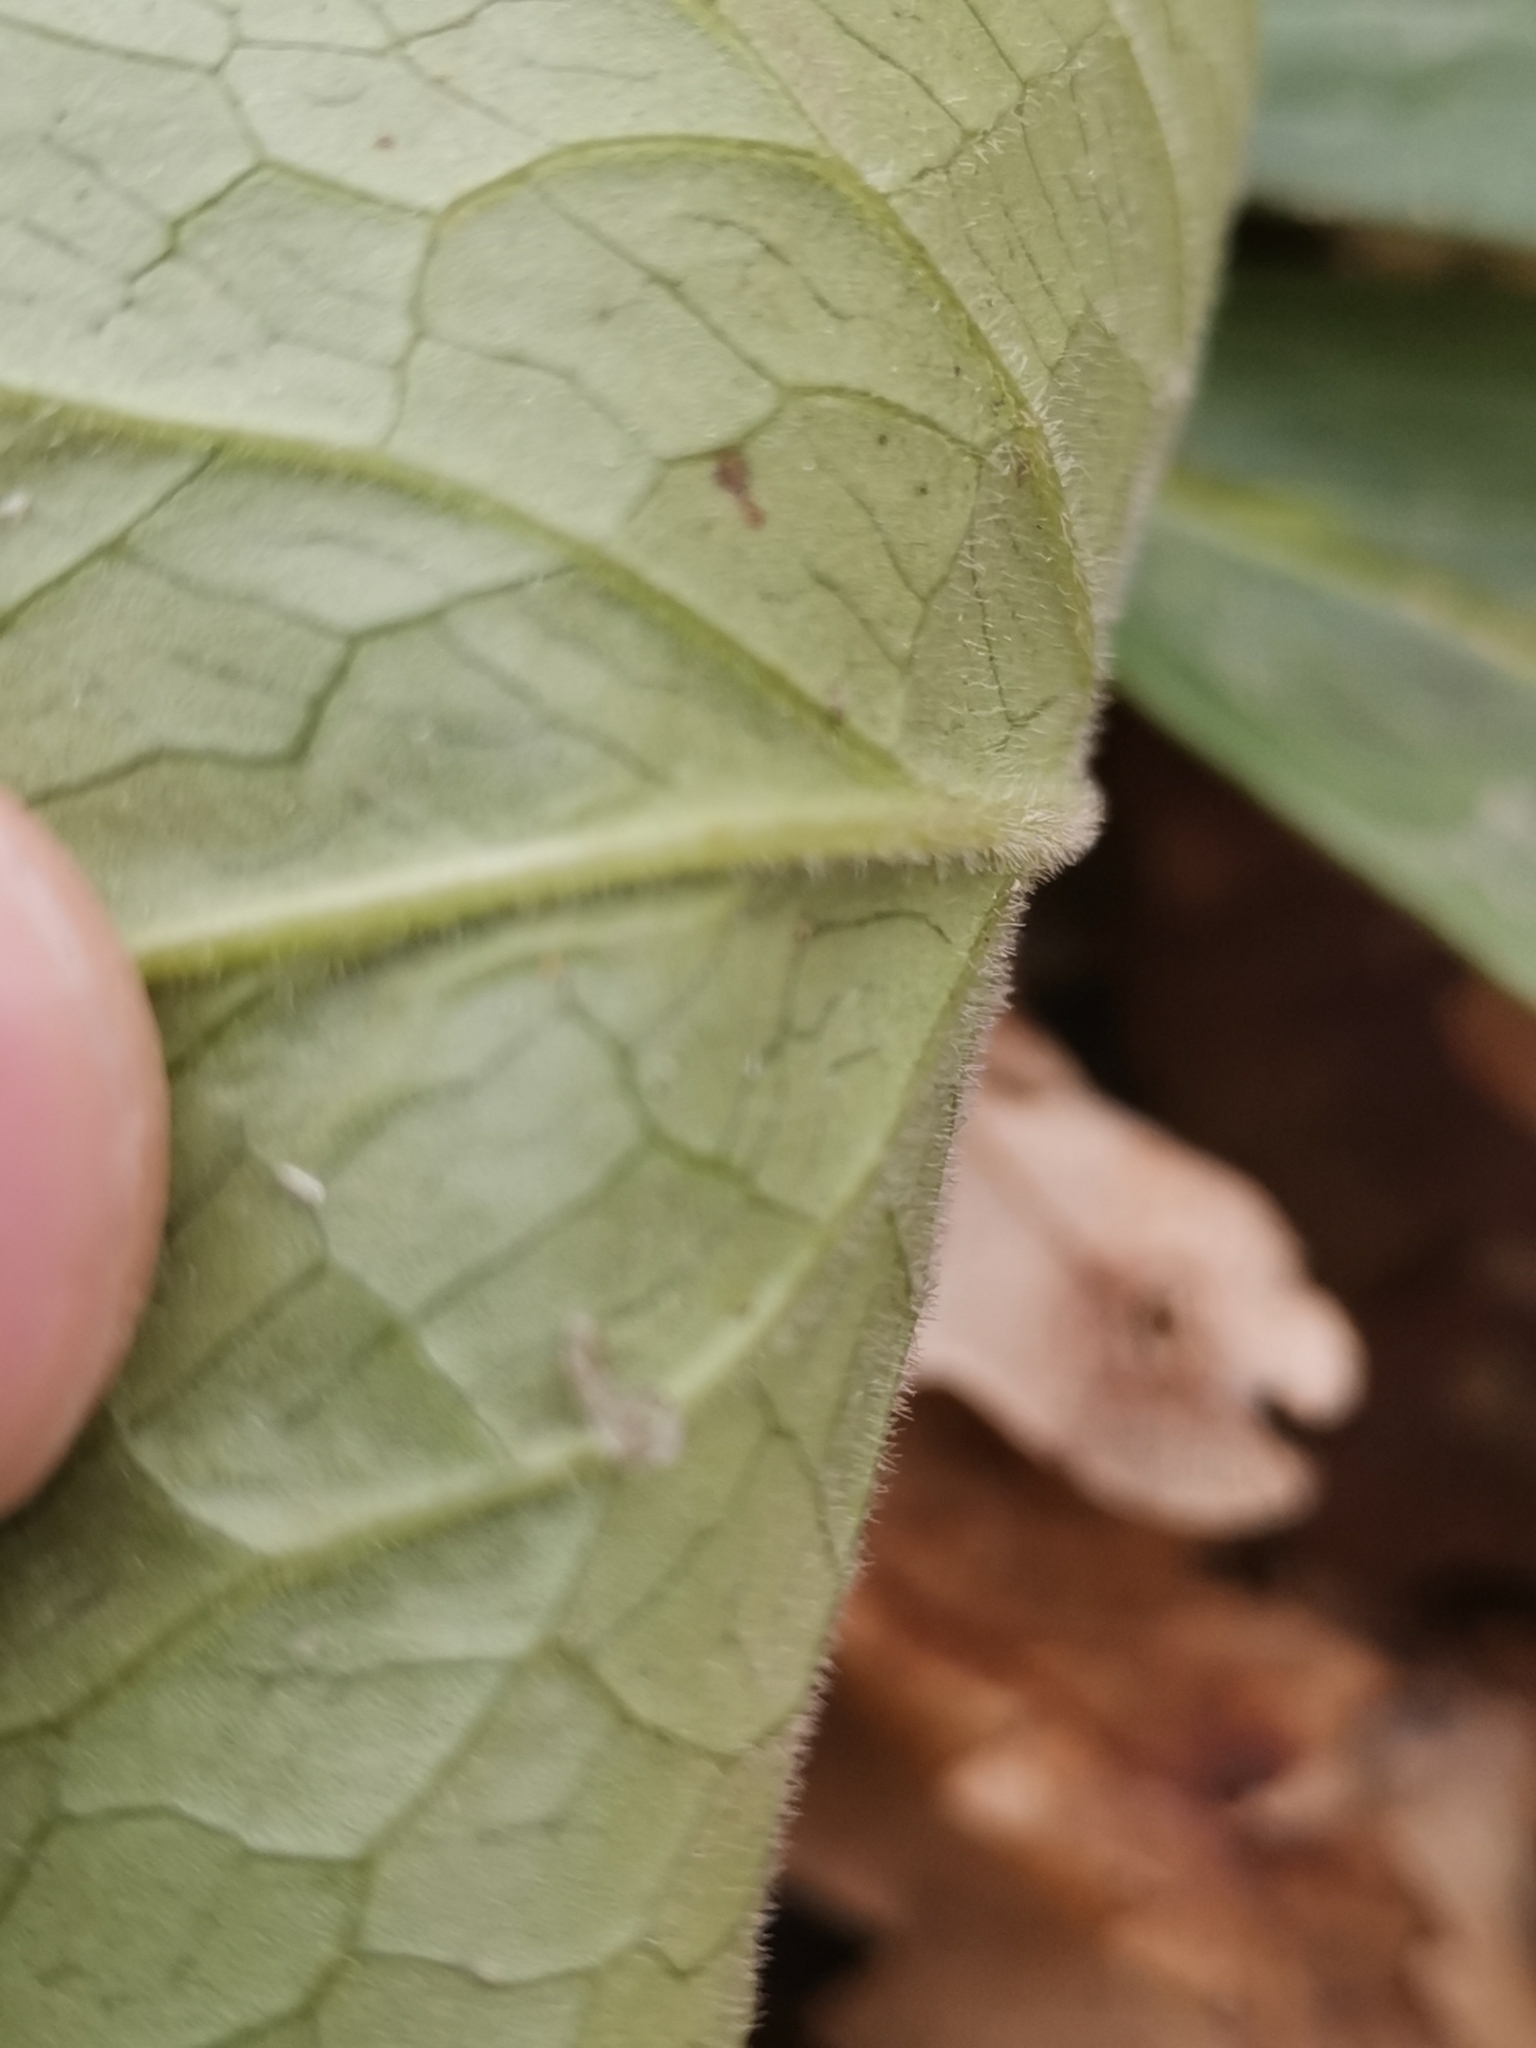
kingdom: Plantae
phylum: Tracheophyta
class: Magnoliopsida
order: Ranunculales
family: Ranunculaceae
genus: Helleborus
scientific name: Helleborus odorus
